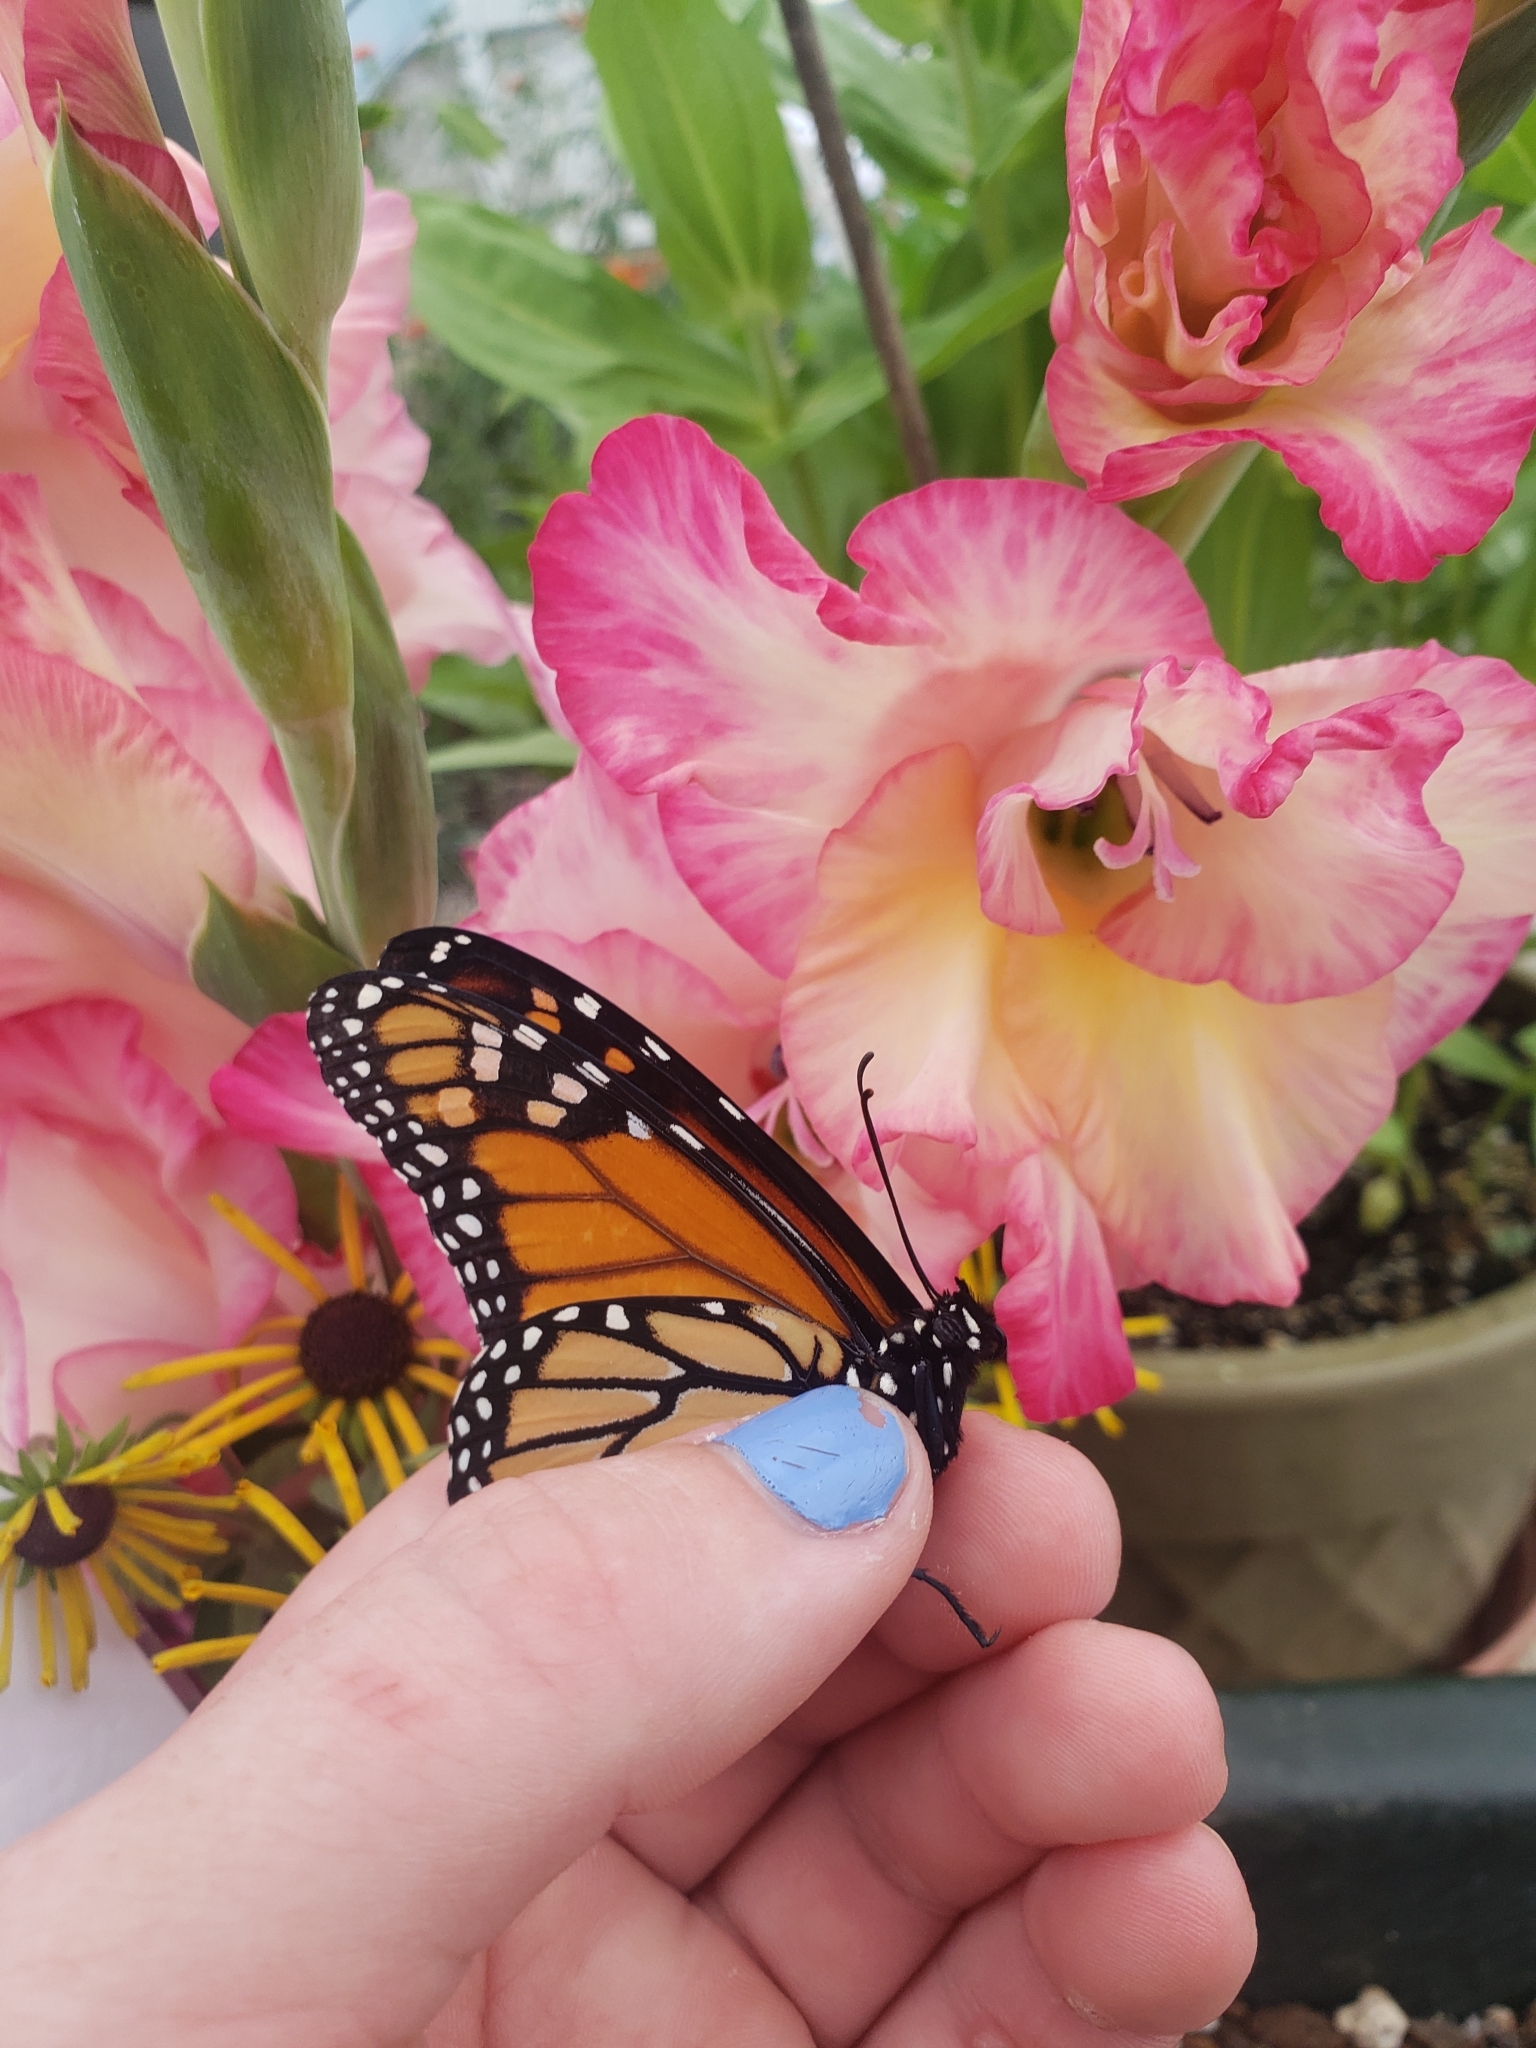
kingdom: Animalia
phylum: Arthropoda
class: Insecta
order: Lepidoptera
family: Nymphalidae
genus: Danaus
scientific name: Danaus plexippus
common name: Monarch
